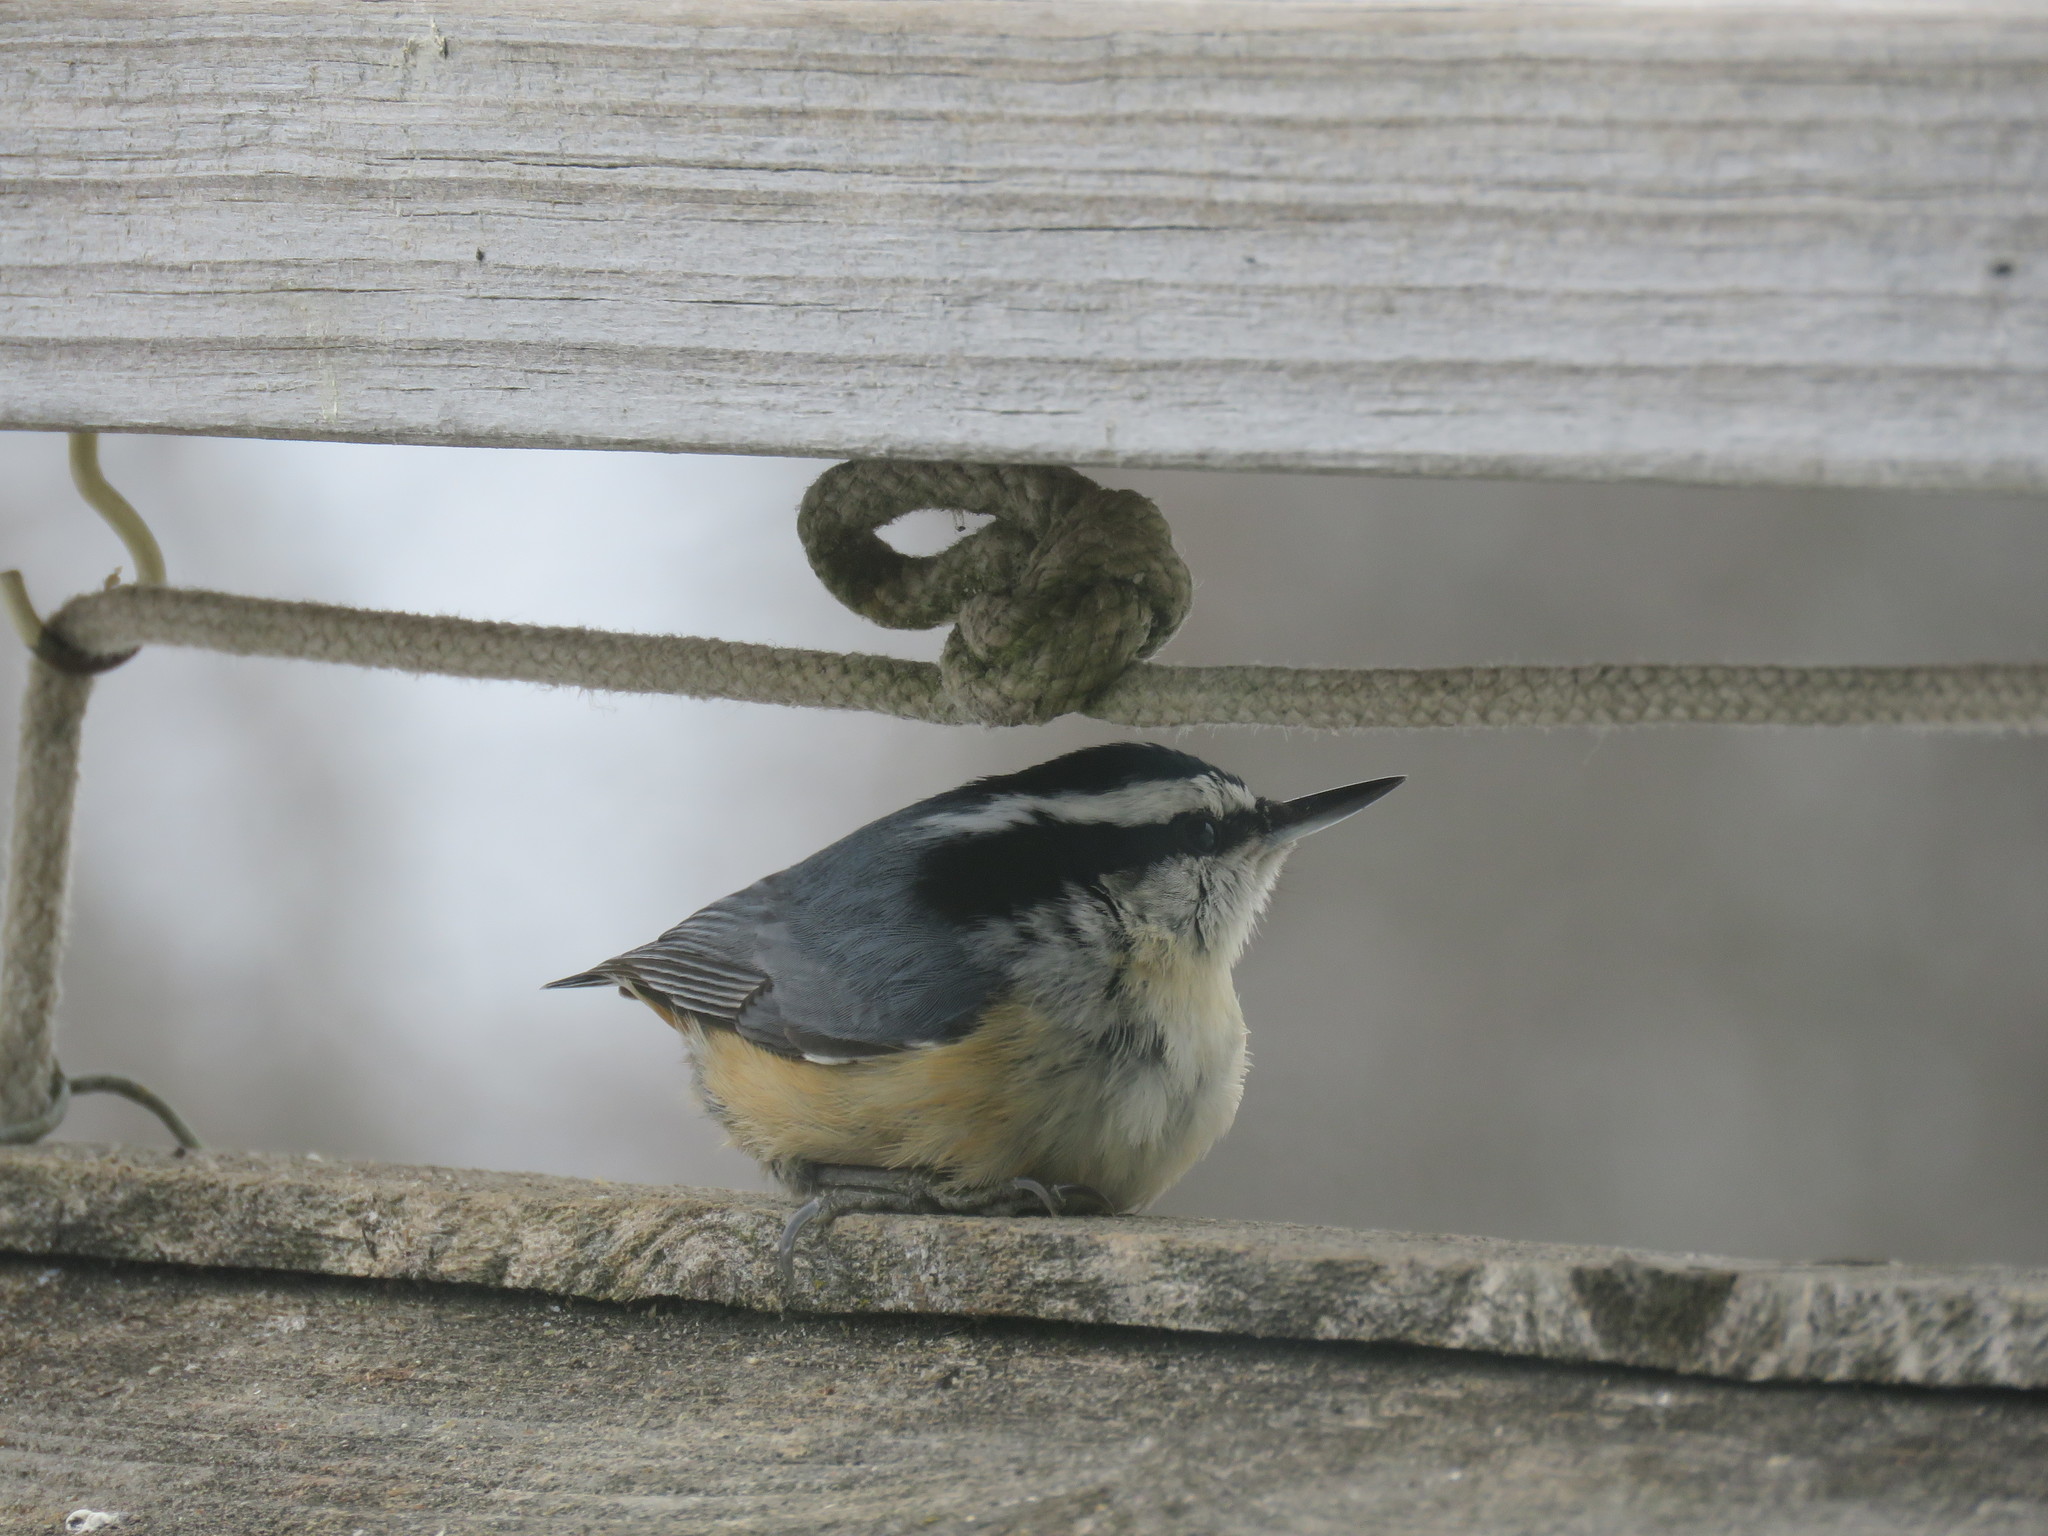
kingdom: Animalia
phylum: Chordata
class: Aves
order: Passeriformes
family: Sittidae
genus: Sitta
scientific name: Sitta canadensis
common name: Red-breasted nuthatch
